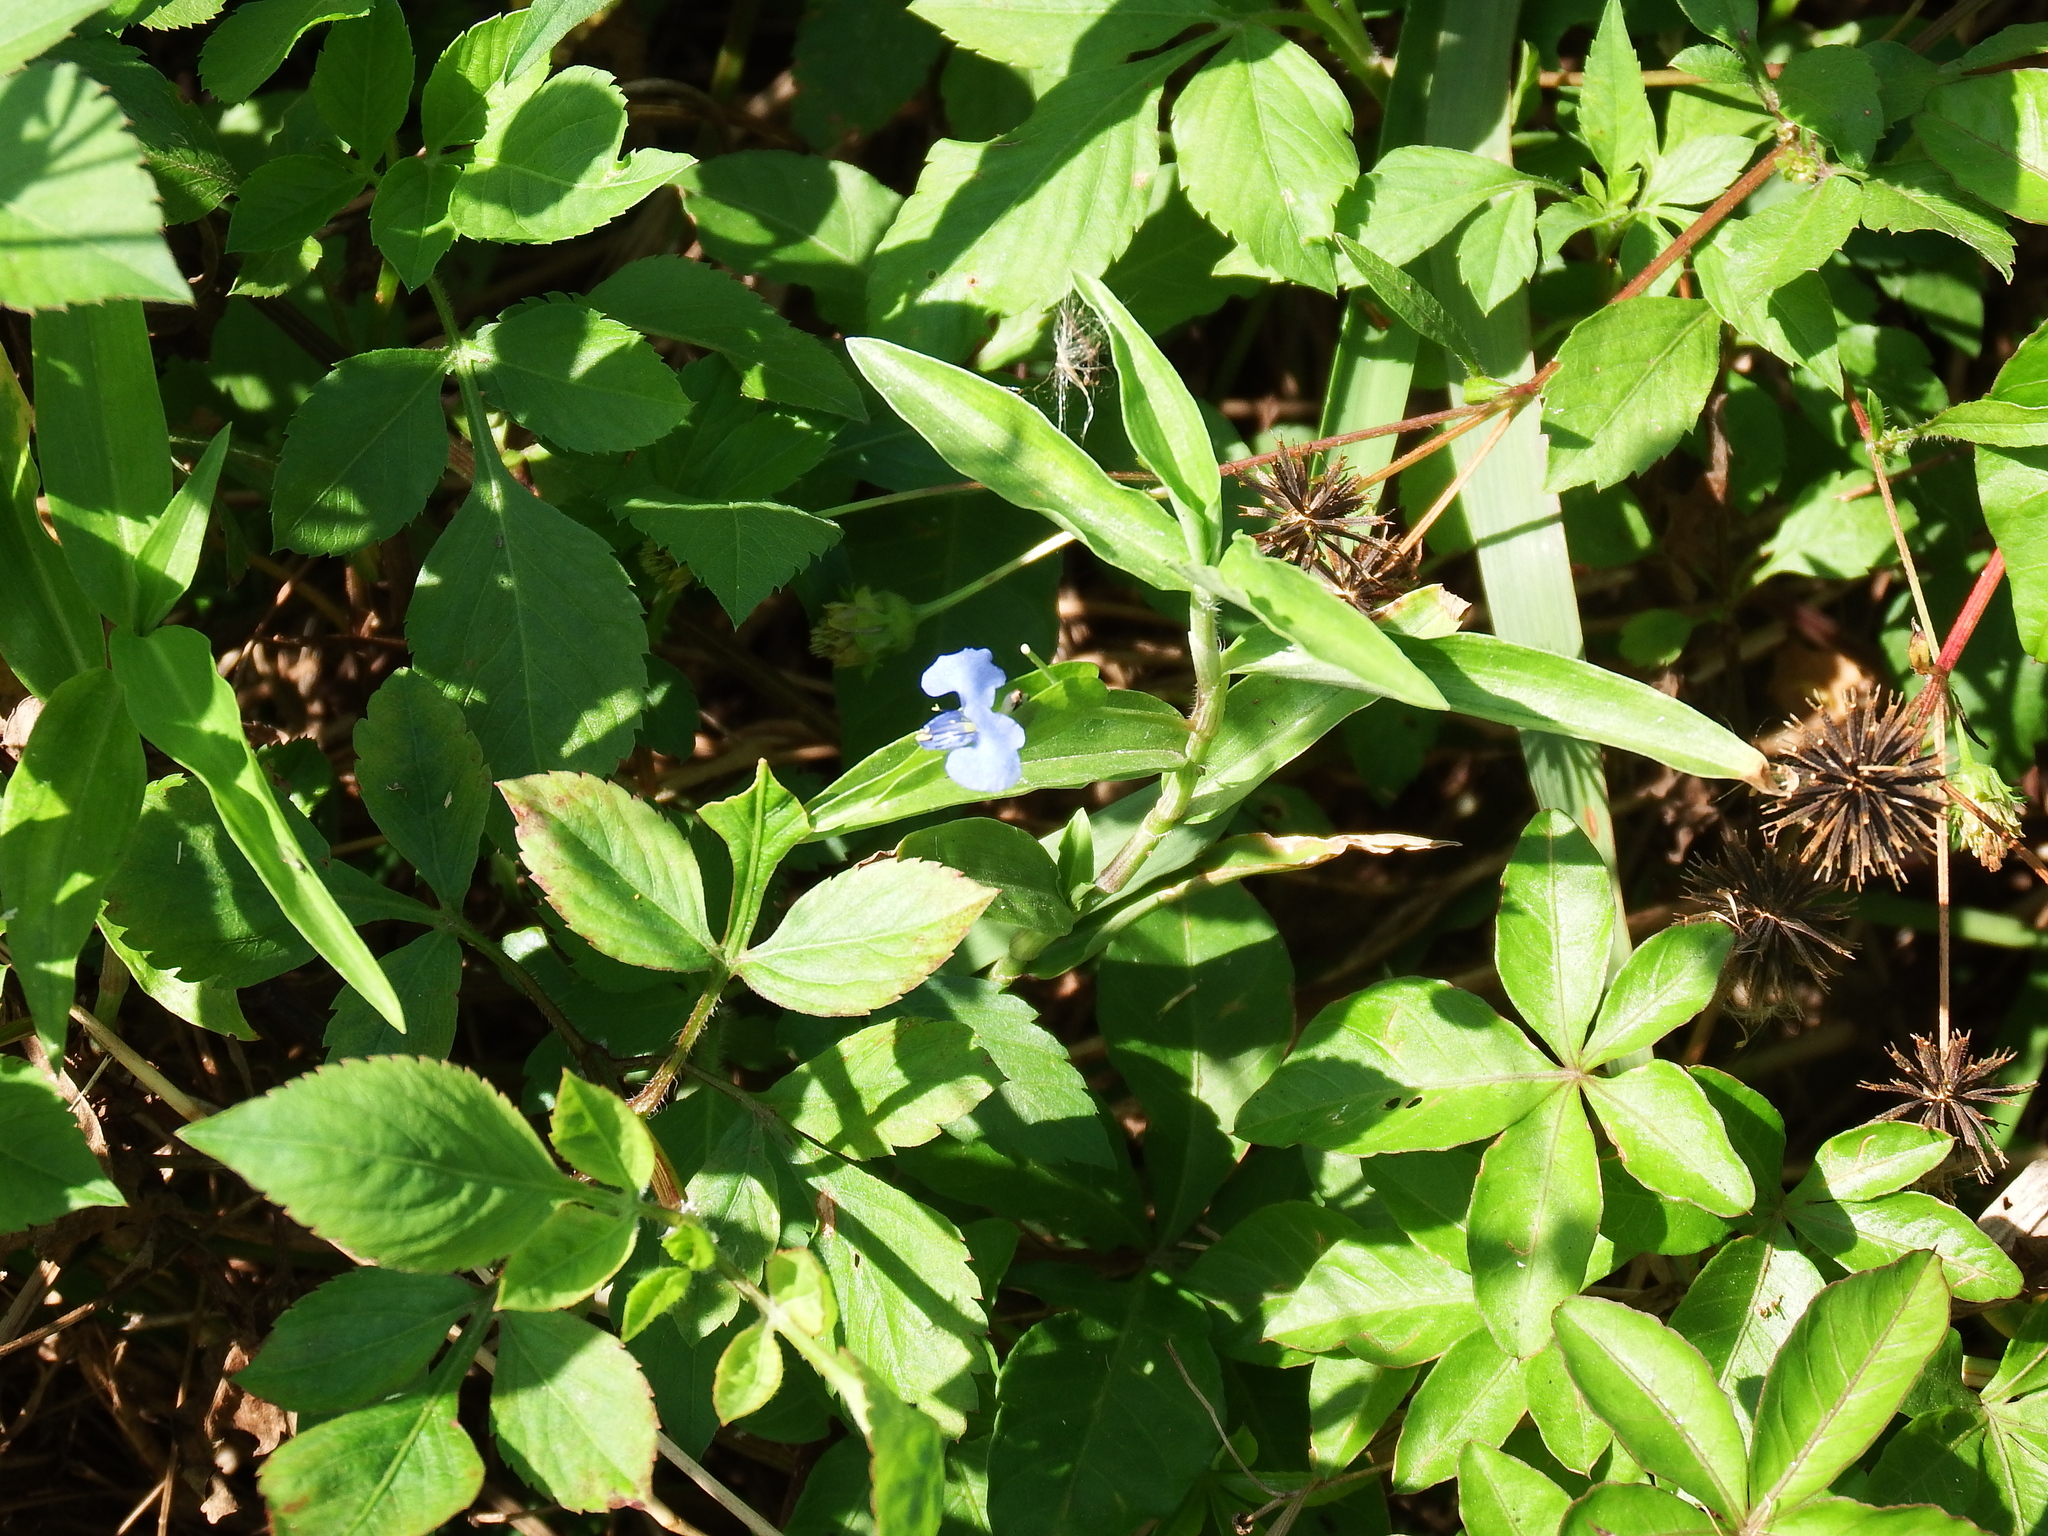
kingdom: Plantae
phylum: Tracheophyta
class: Liliopsida
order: Commelinales
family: Commelinaceae
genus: Commelina
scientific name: Commelina diffusa
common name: Climbing dayflower
